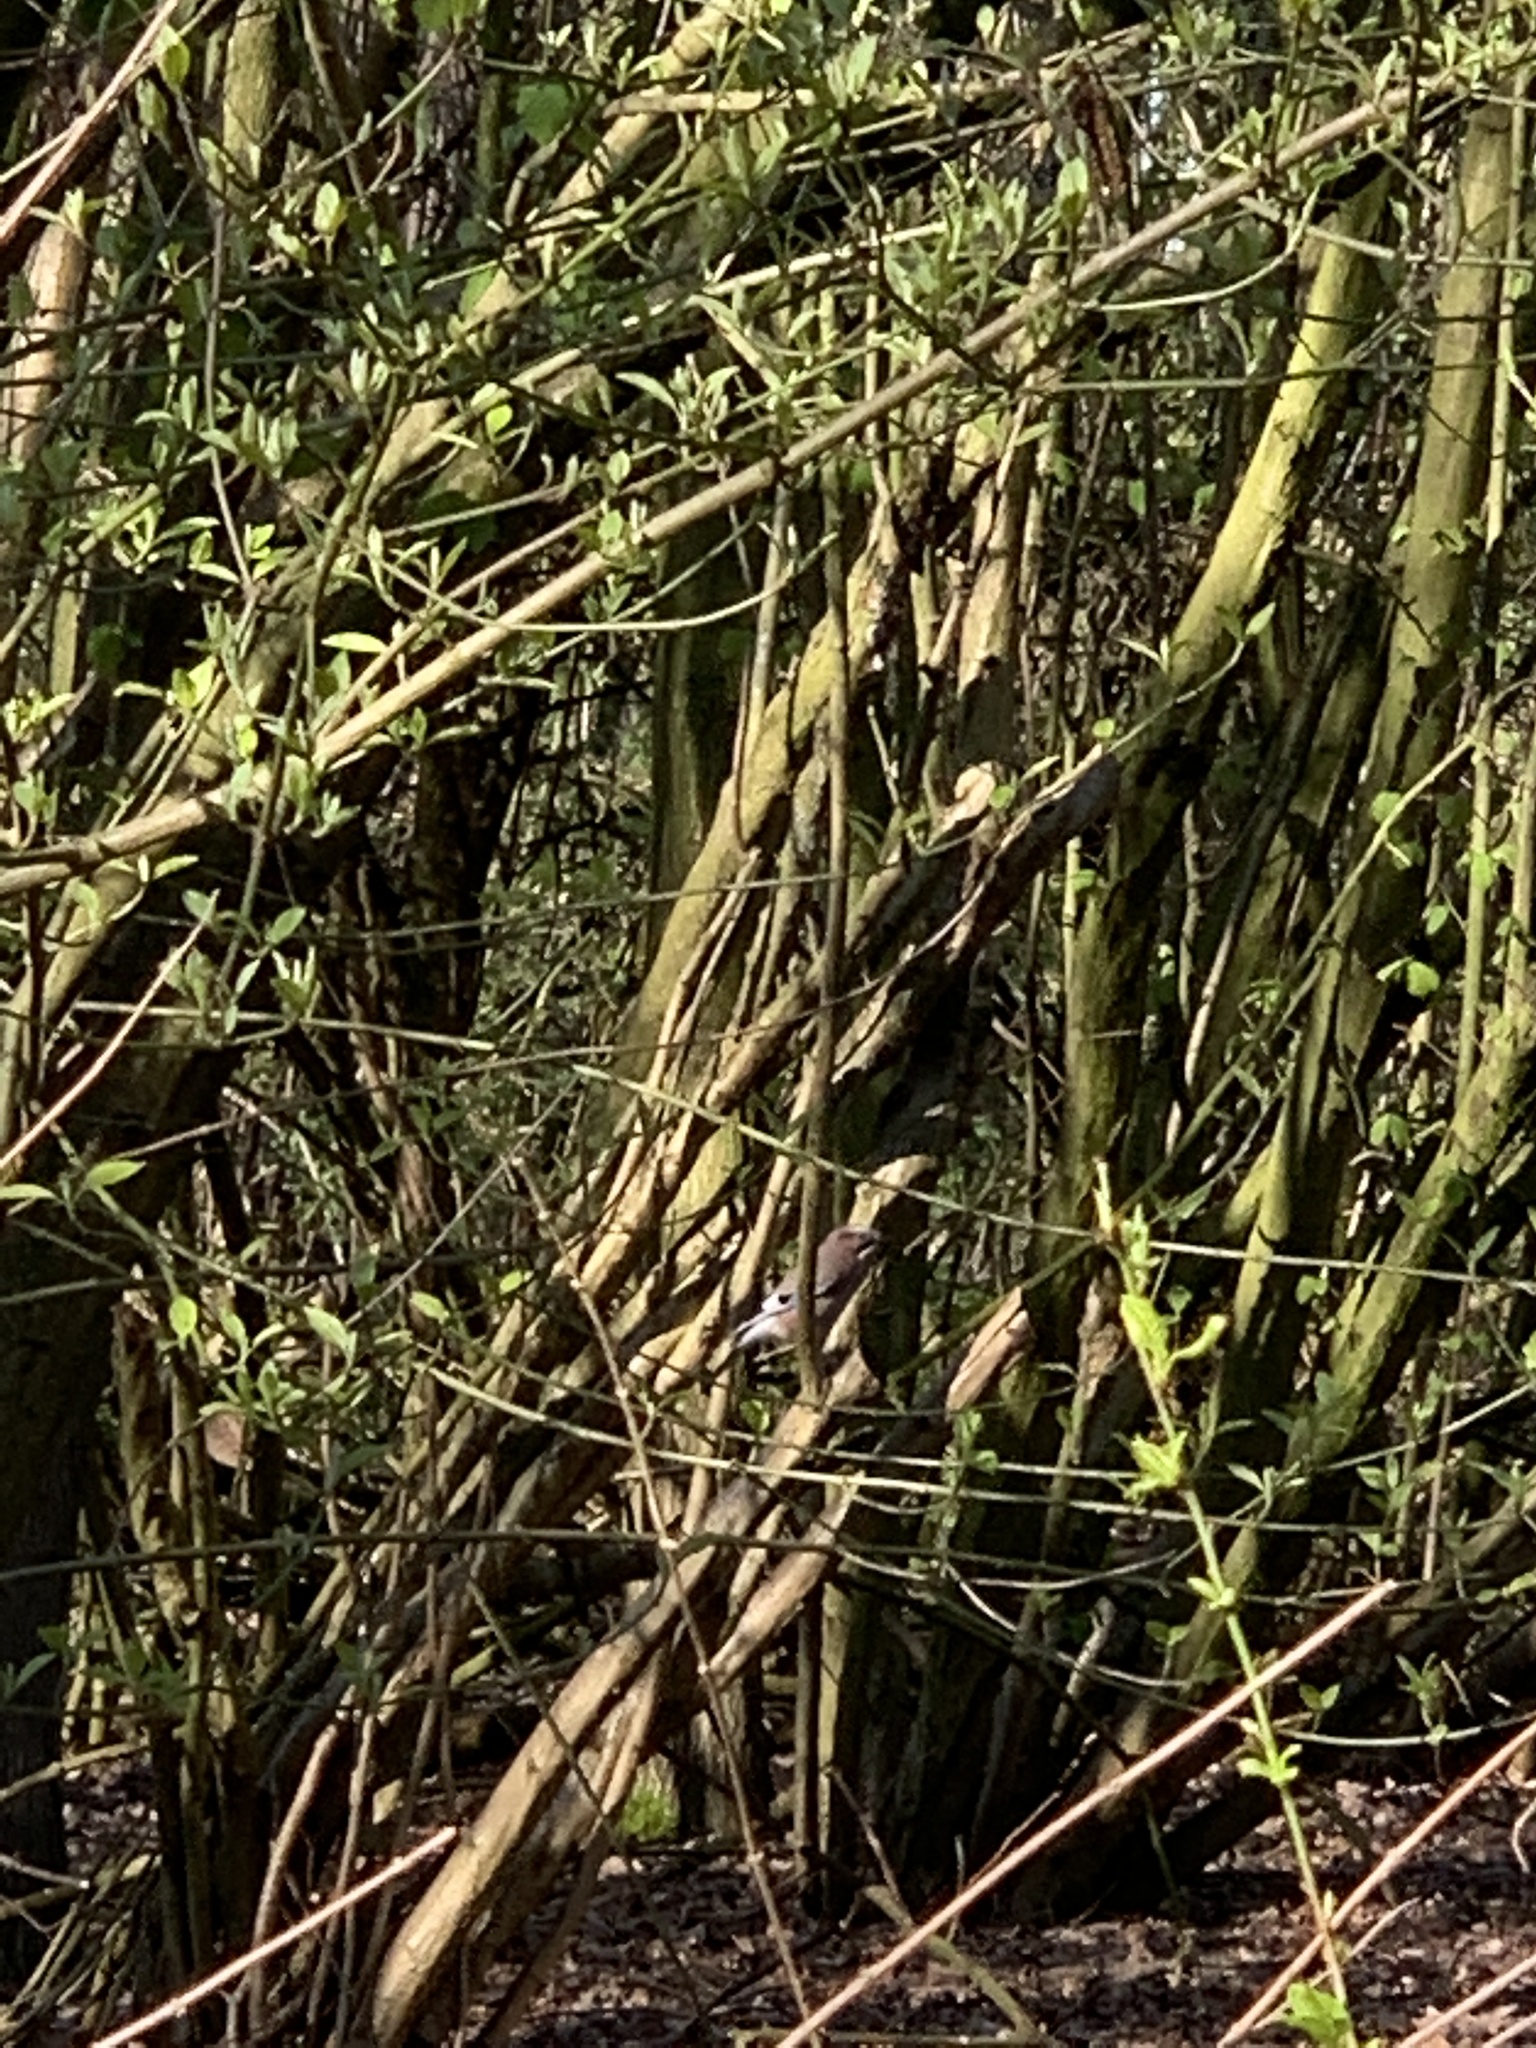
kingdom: Animalia
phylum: Chordata
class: Aves
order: Passeriformes
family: Corvidae
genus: Garrulus
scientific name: Garrulus glandarius
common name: Eurasian jay
